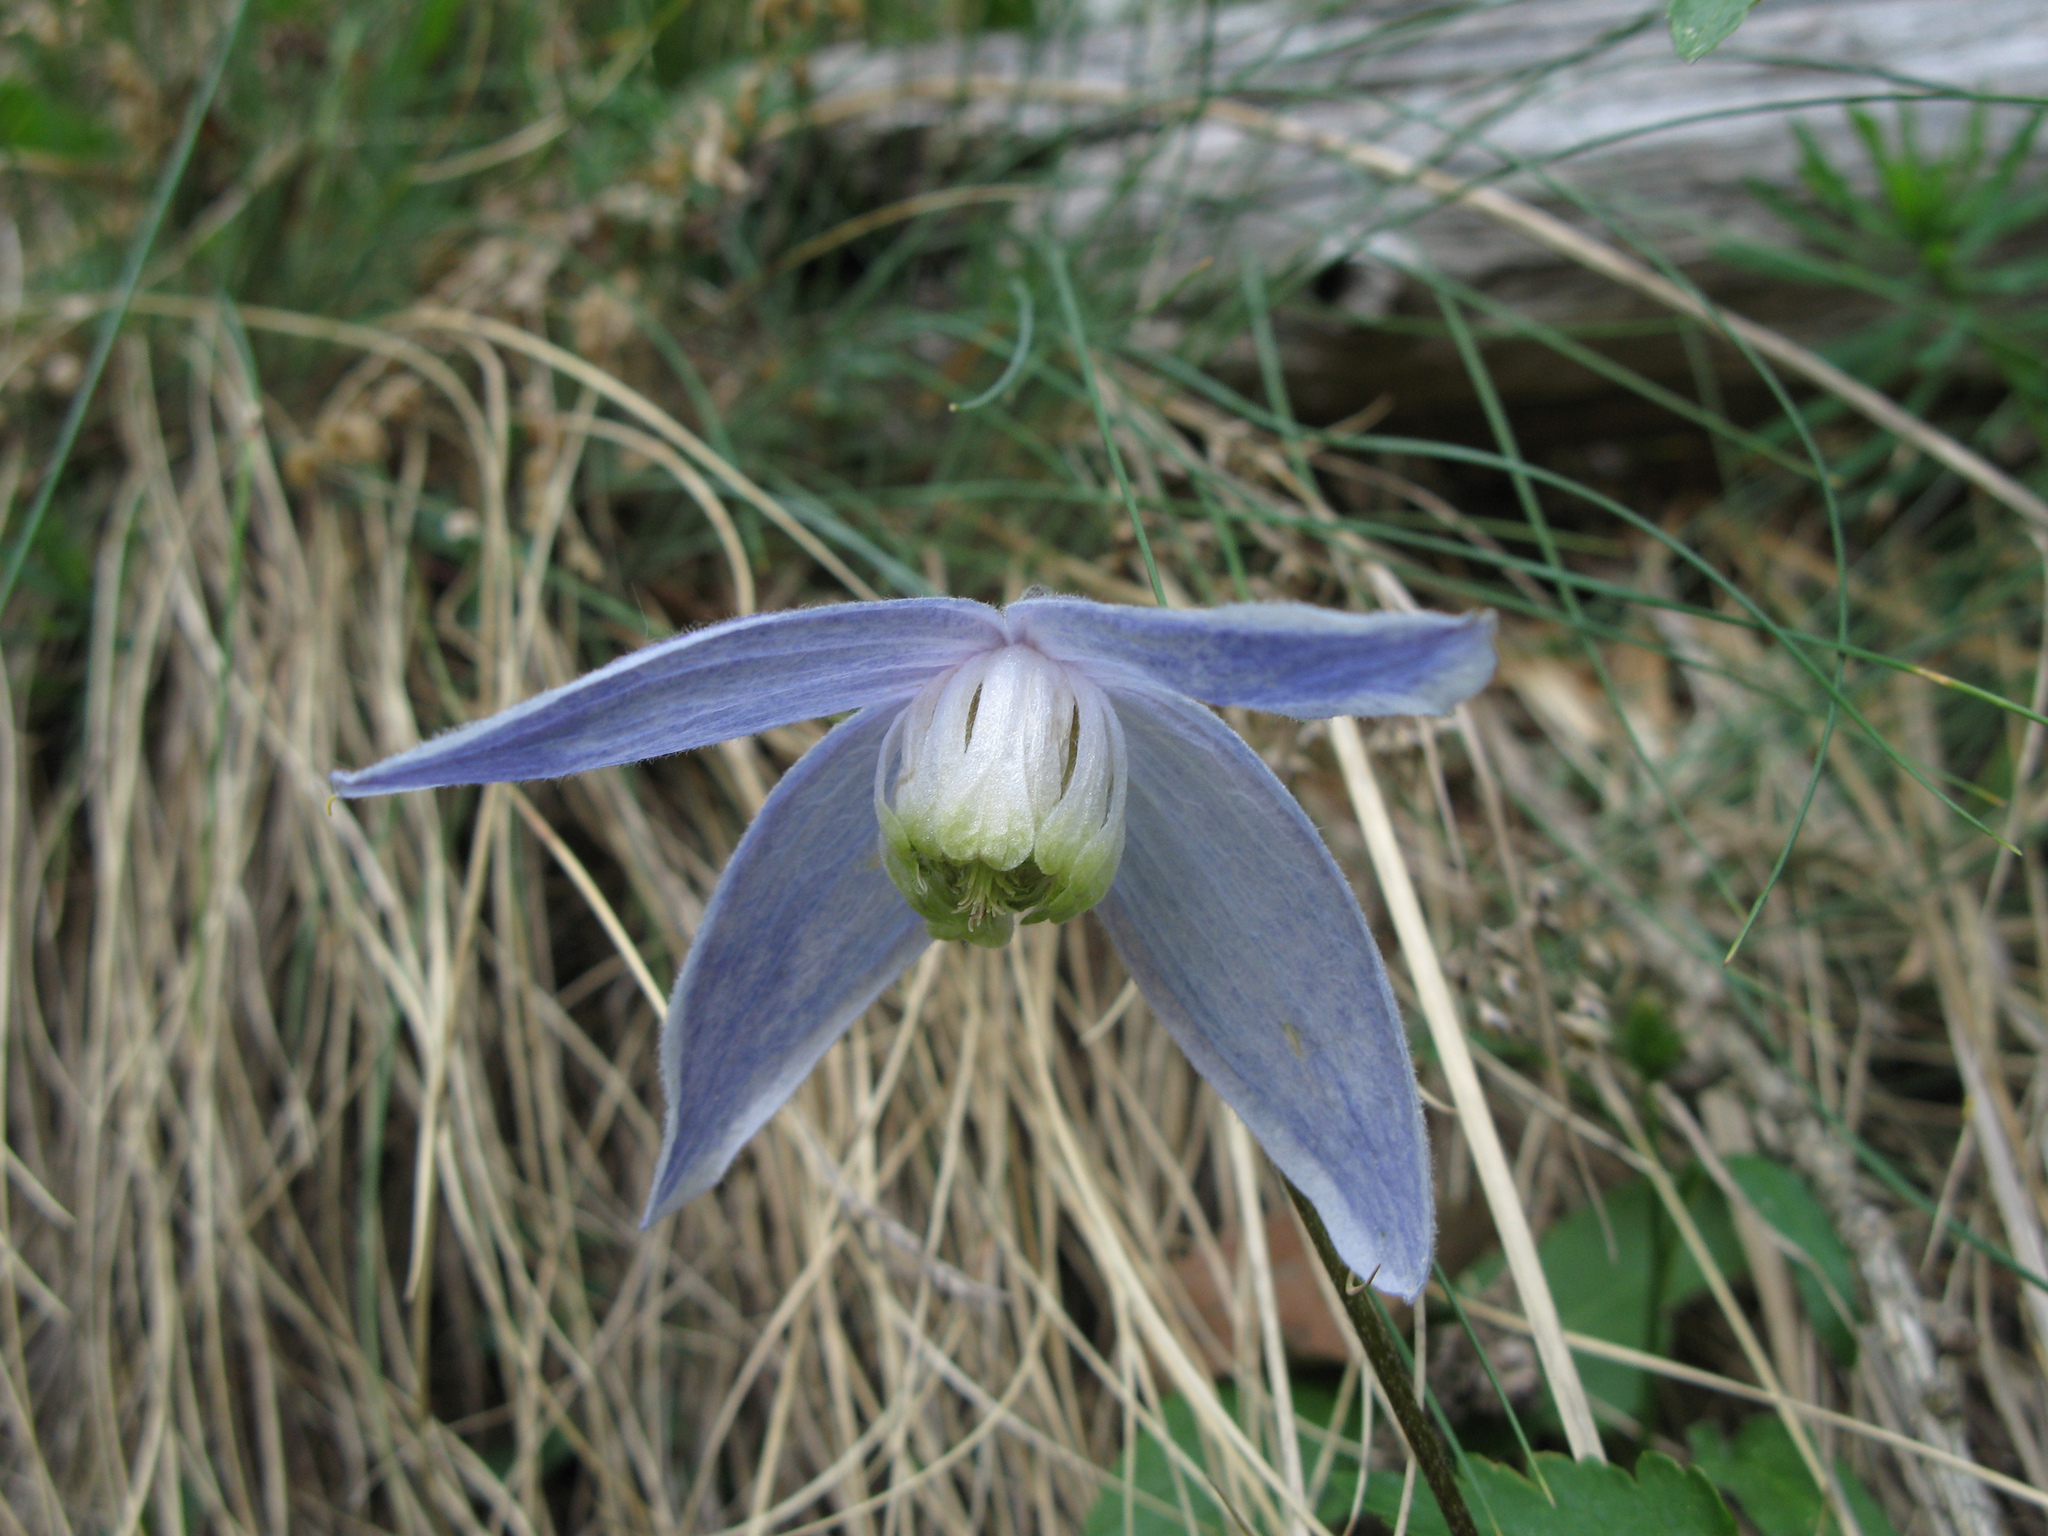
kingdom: Plantae
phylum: Tracheophyta
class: Magnoliopsida
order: Ranunculales
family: Ranunculaceae
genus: Clematis
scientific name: Clematis alpina
